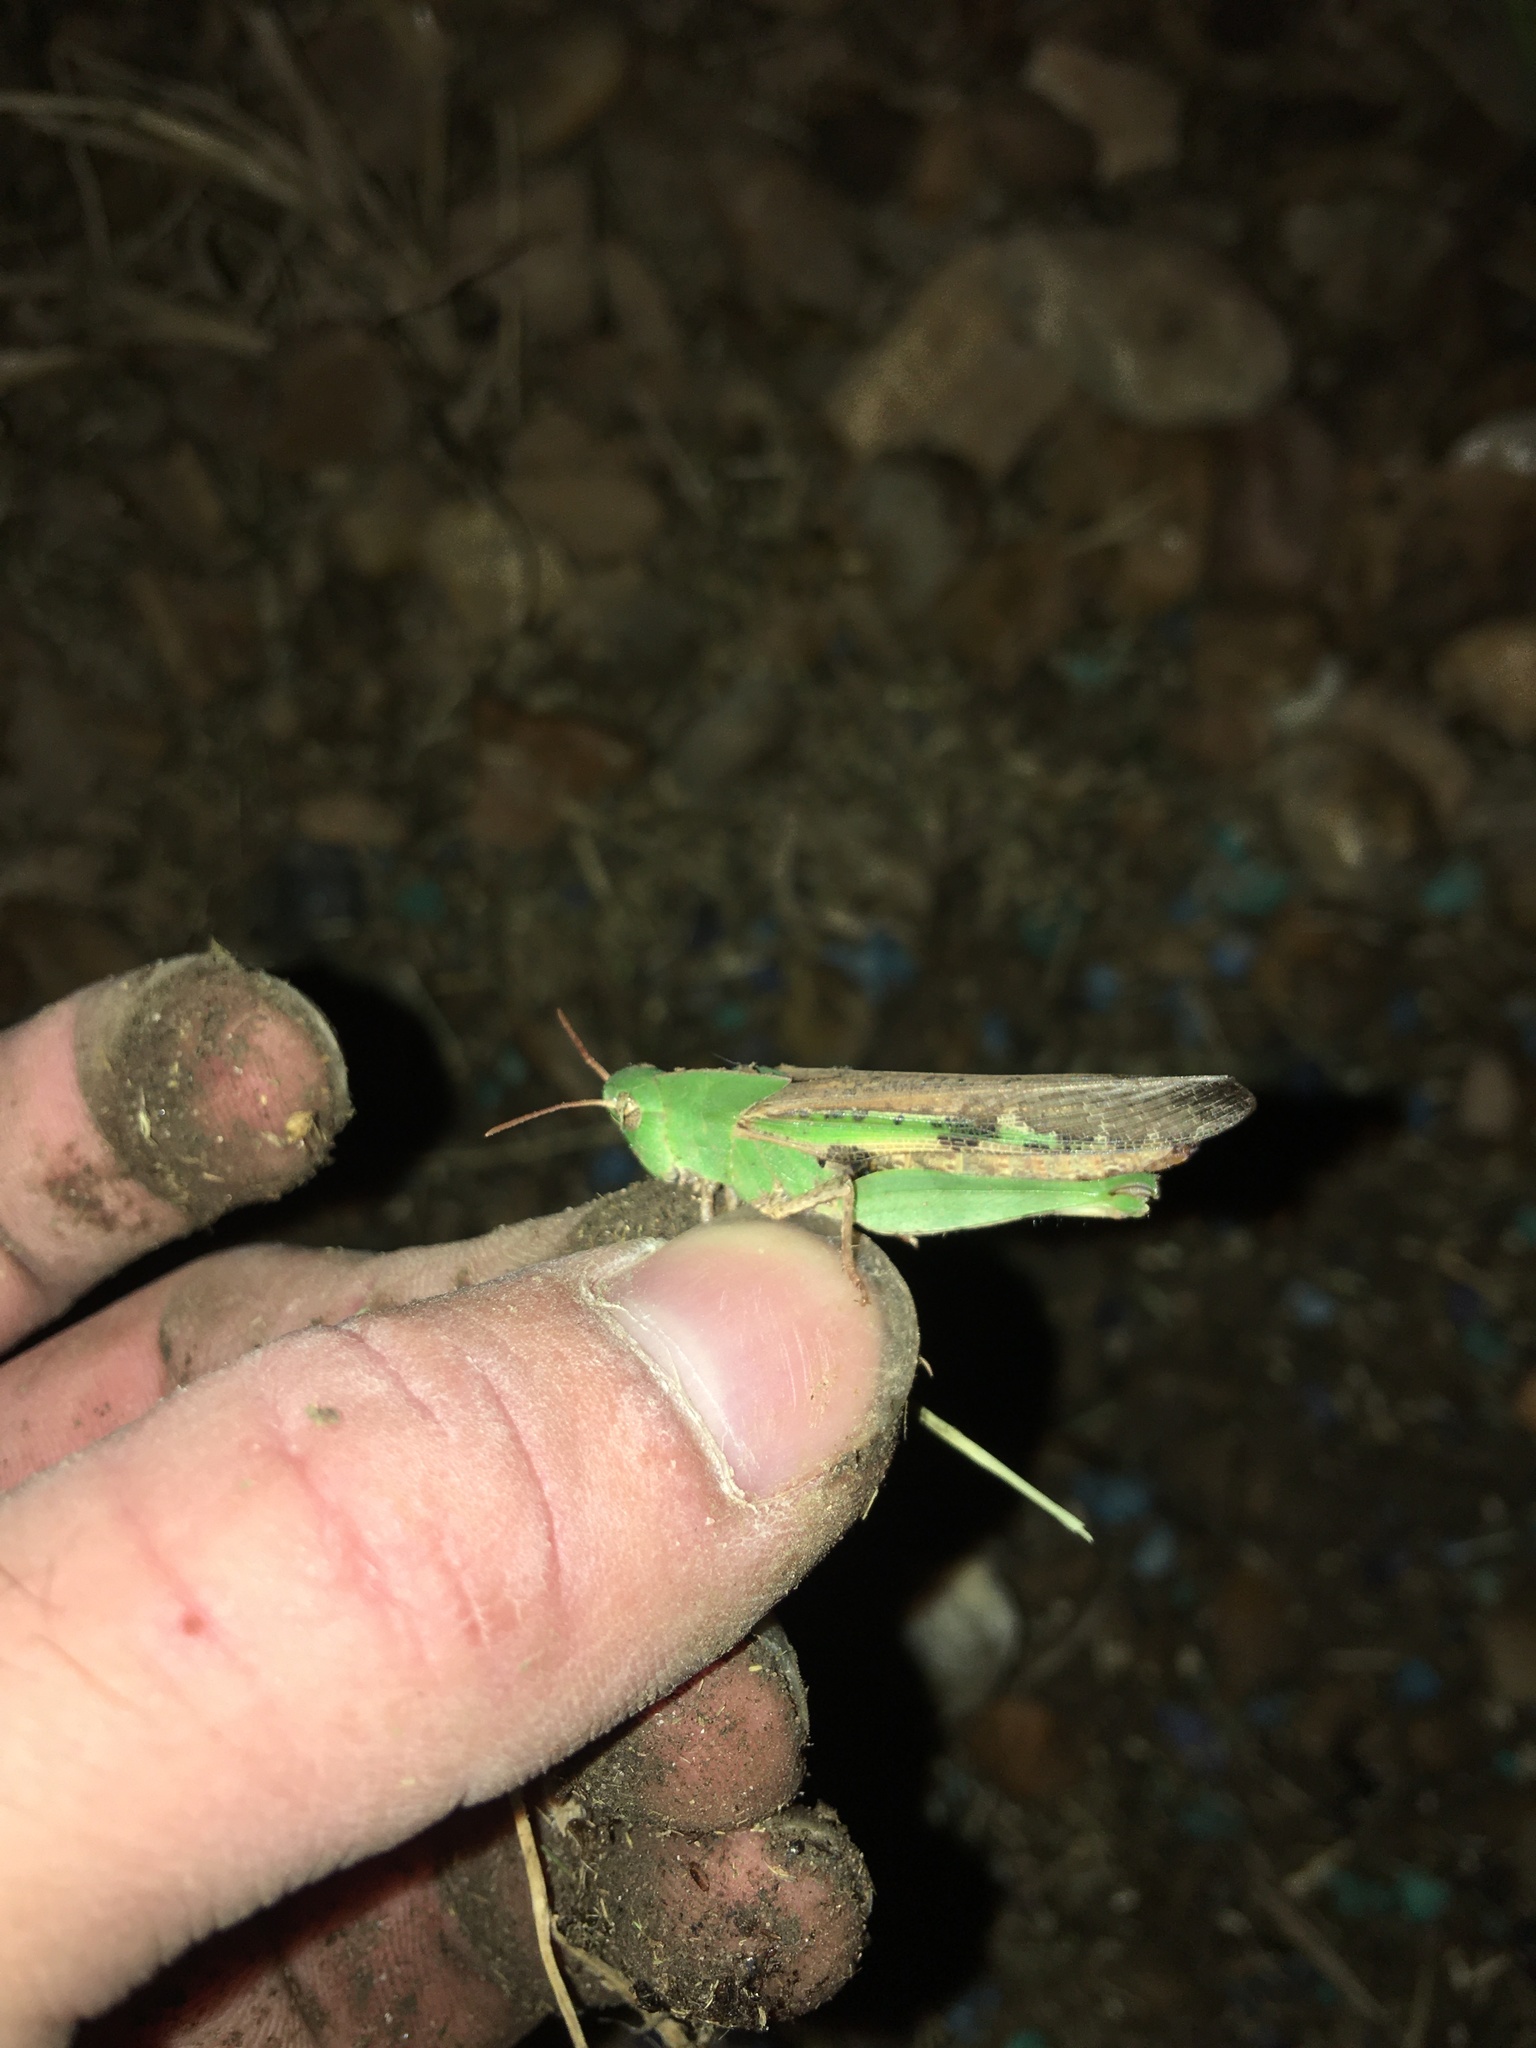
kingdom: Animalia
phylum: Arthropoda
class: Insecta
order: Orthoptera
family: Acrididae
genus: Chortophaga
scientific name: Chortophaga viridifasciata
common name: Green-striped grasshopper
